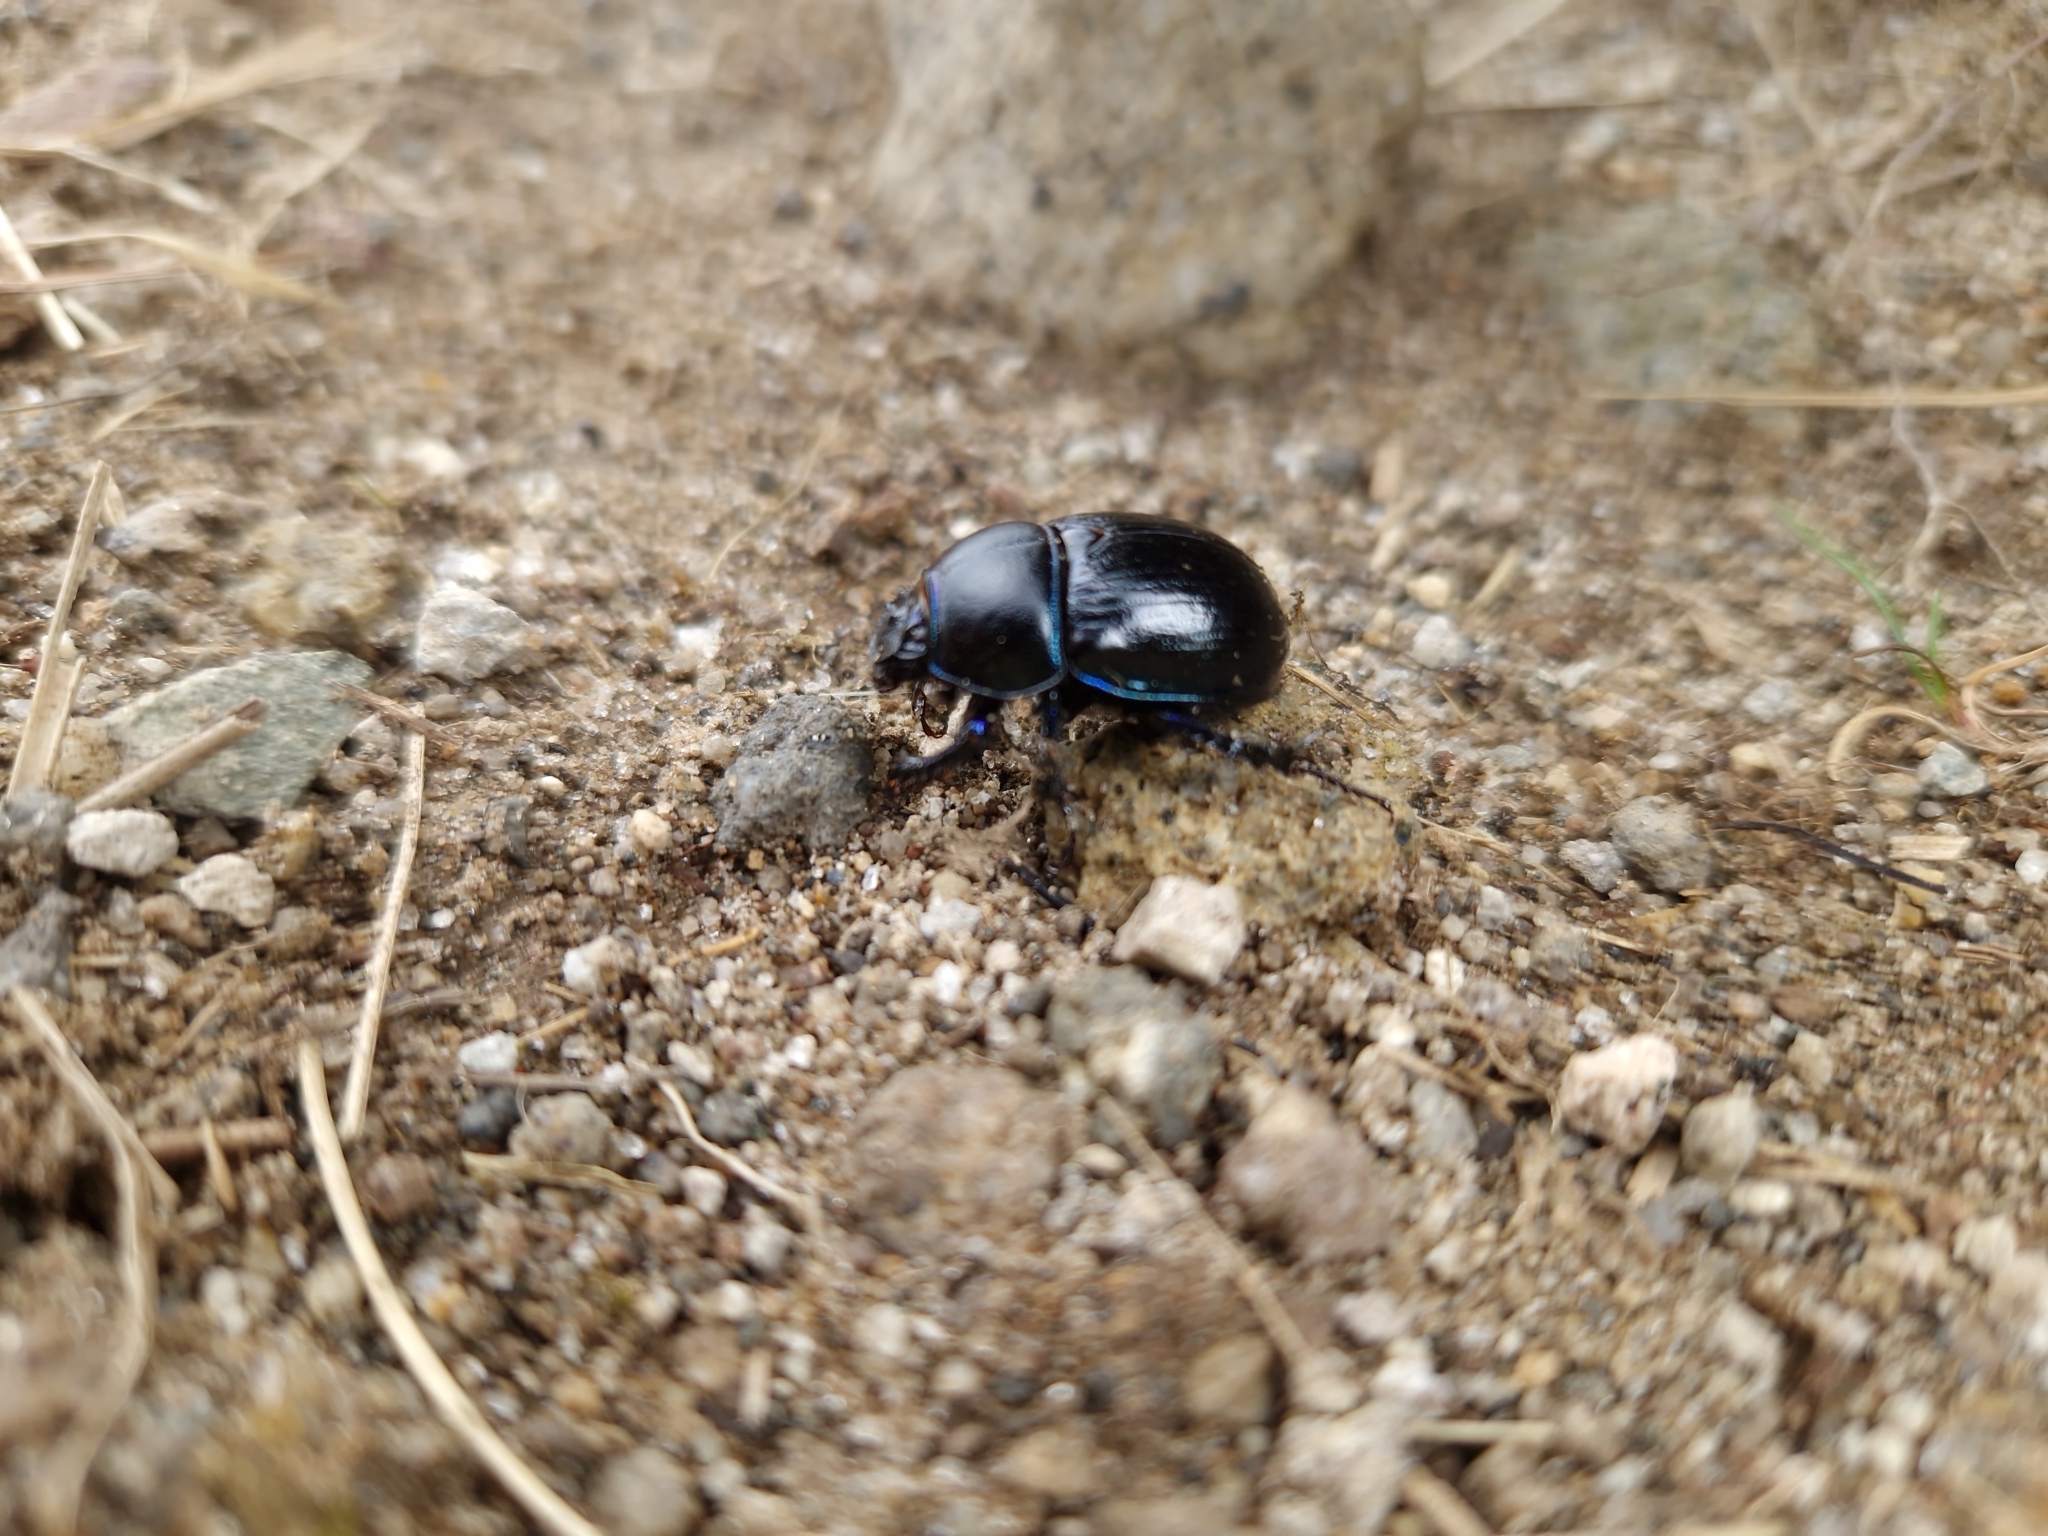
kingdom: Animalia
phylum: Arthropoda
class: Insecta
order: Coleoptera
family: Geotrupidae
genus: Anoplotrupes
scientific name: Anoplotrupes stercorosus
